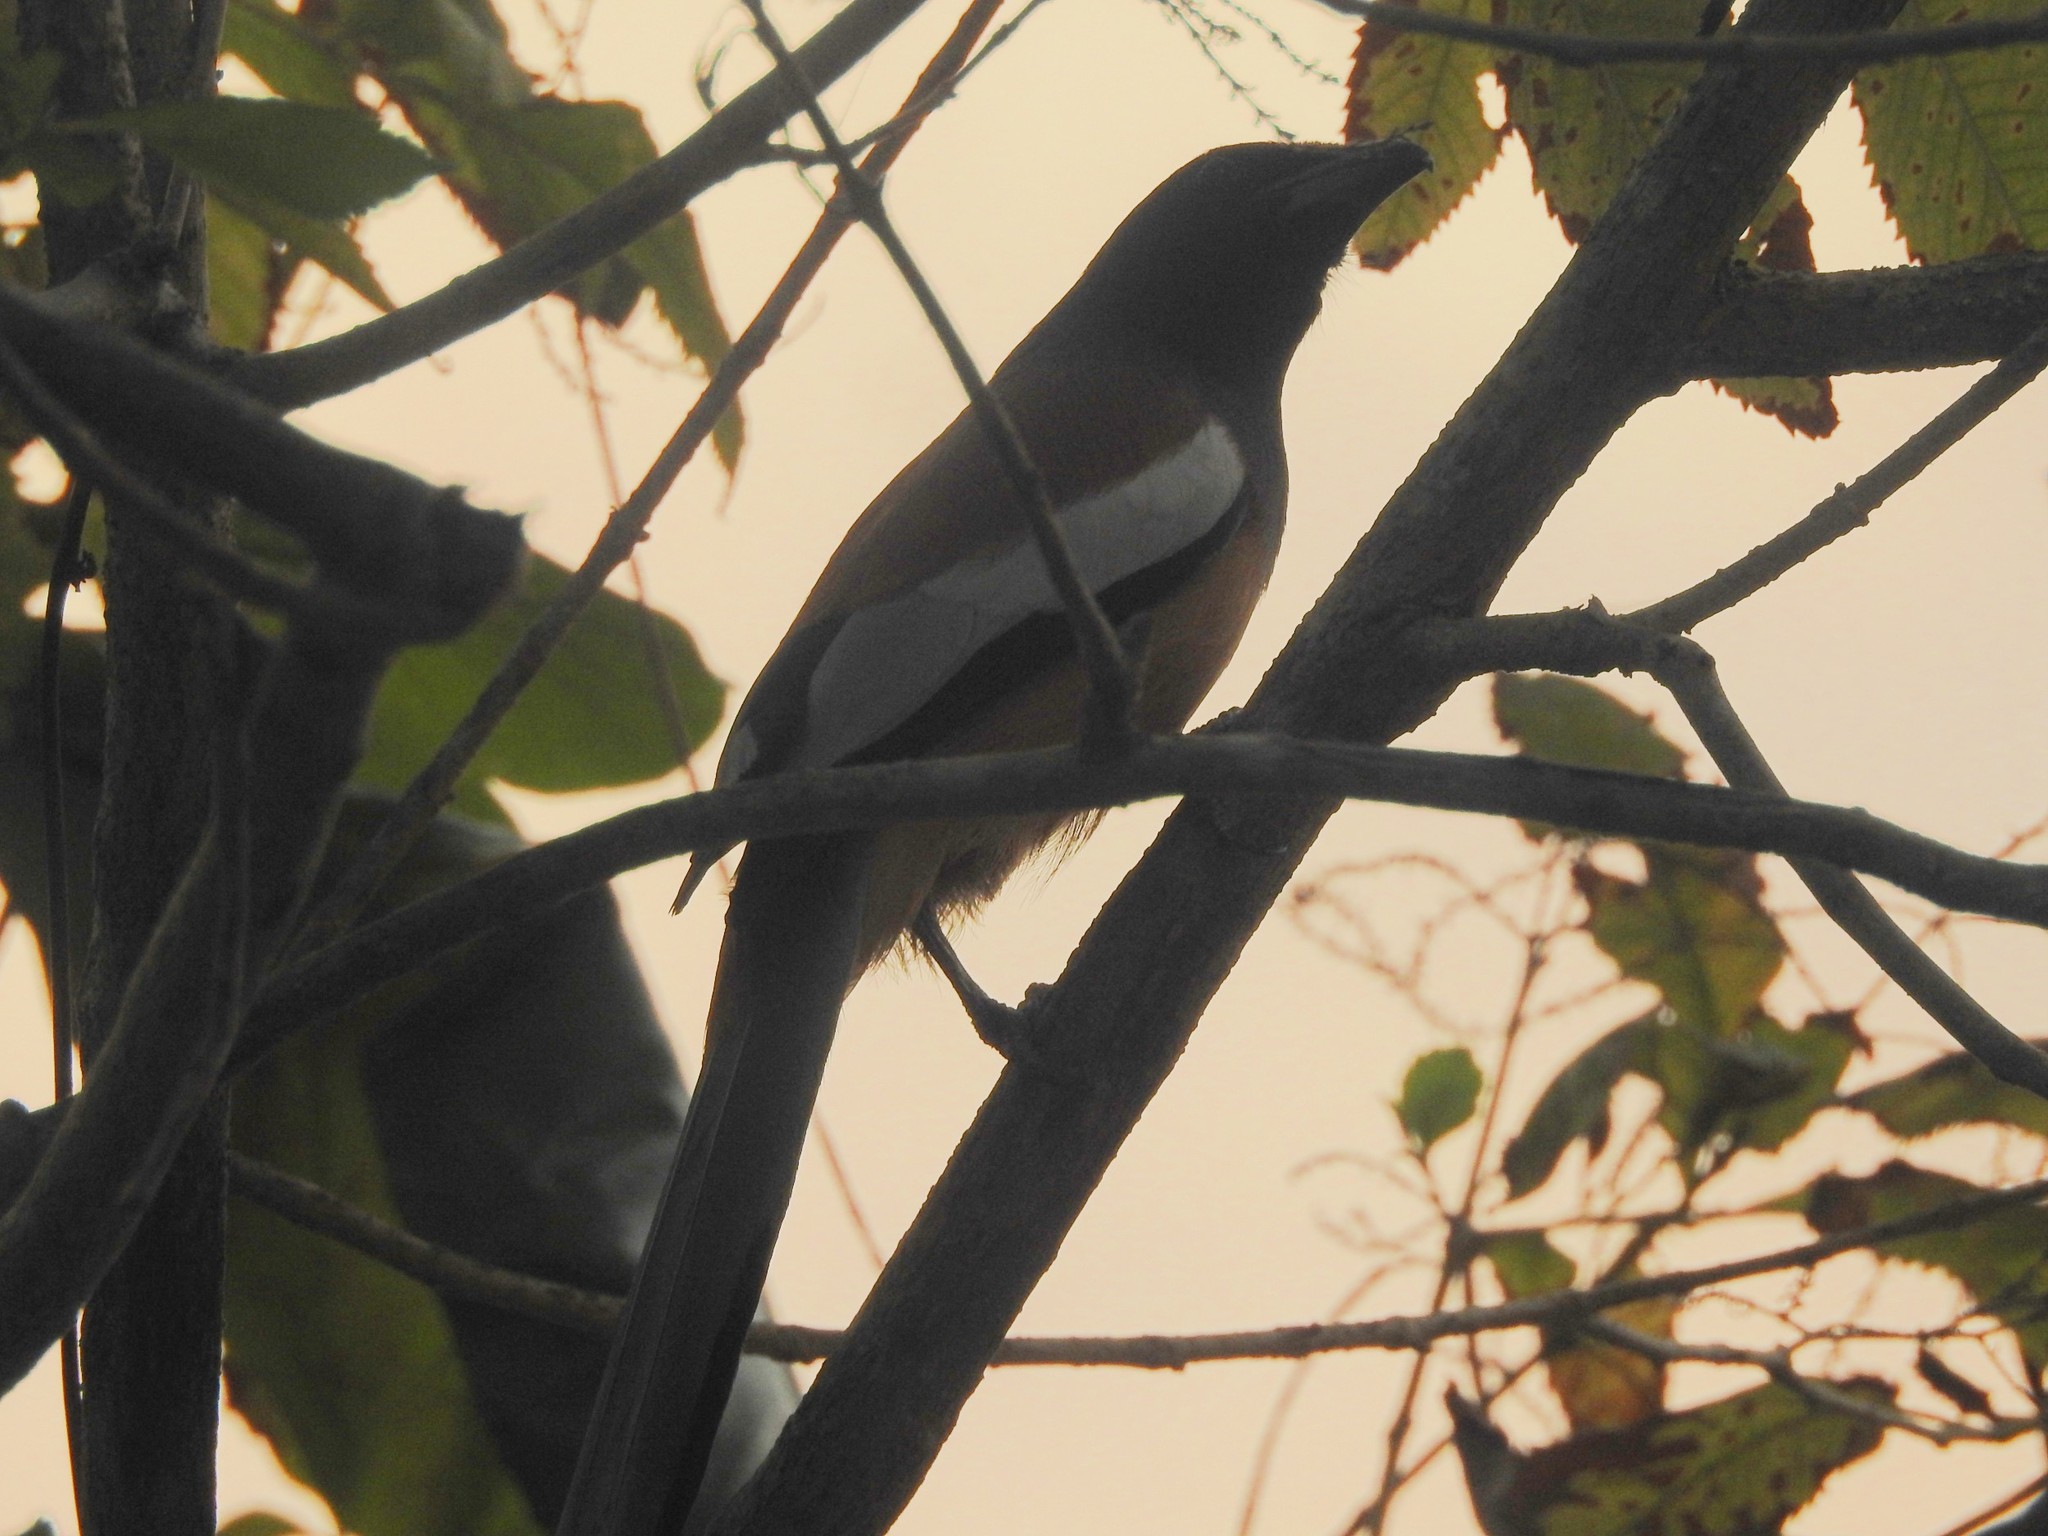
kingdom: Animalia
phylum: Chordata
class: Aves
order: Passeriformes
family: Corvidae
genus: Dendrocitta
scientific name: Dendrocitta vagabunda
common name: Rufous treepie
